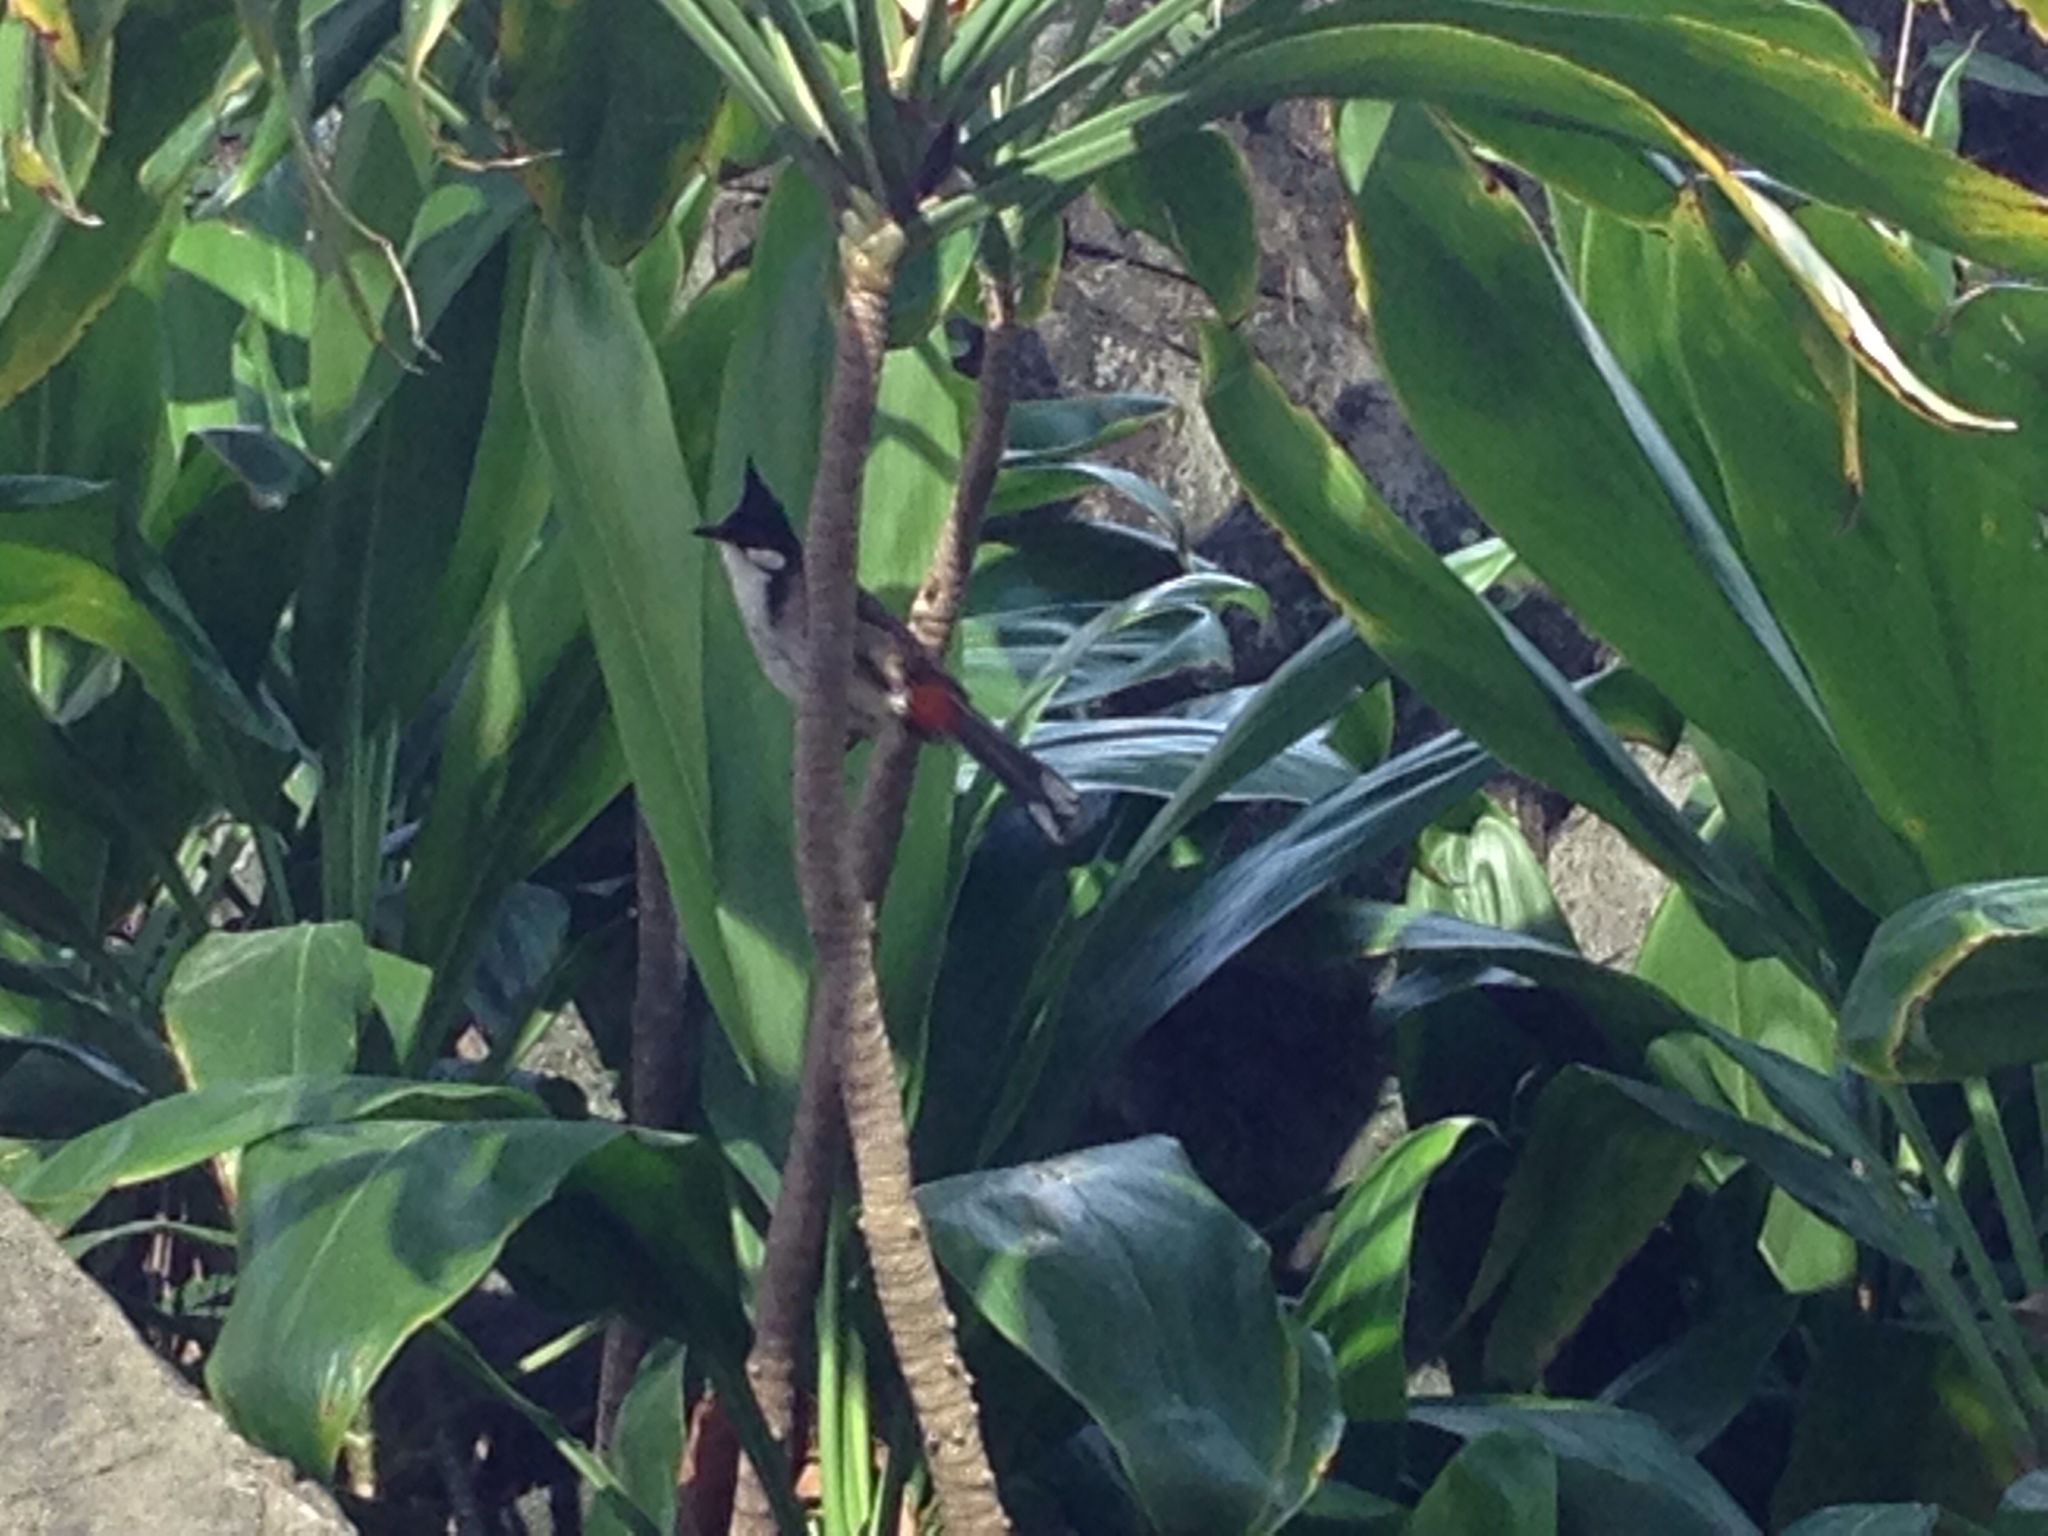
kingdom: Animalia
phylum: Chordata
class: Aves
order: Passeriformes
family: Pycnonotidae
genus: Pycnonotus
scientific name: Pycnonotus jocosus
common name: Red-whiskered bulbul
